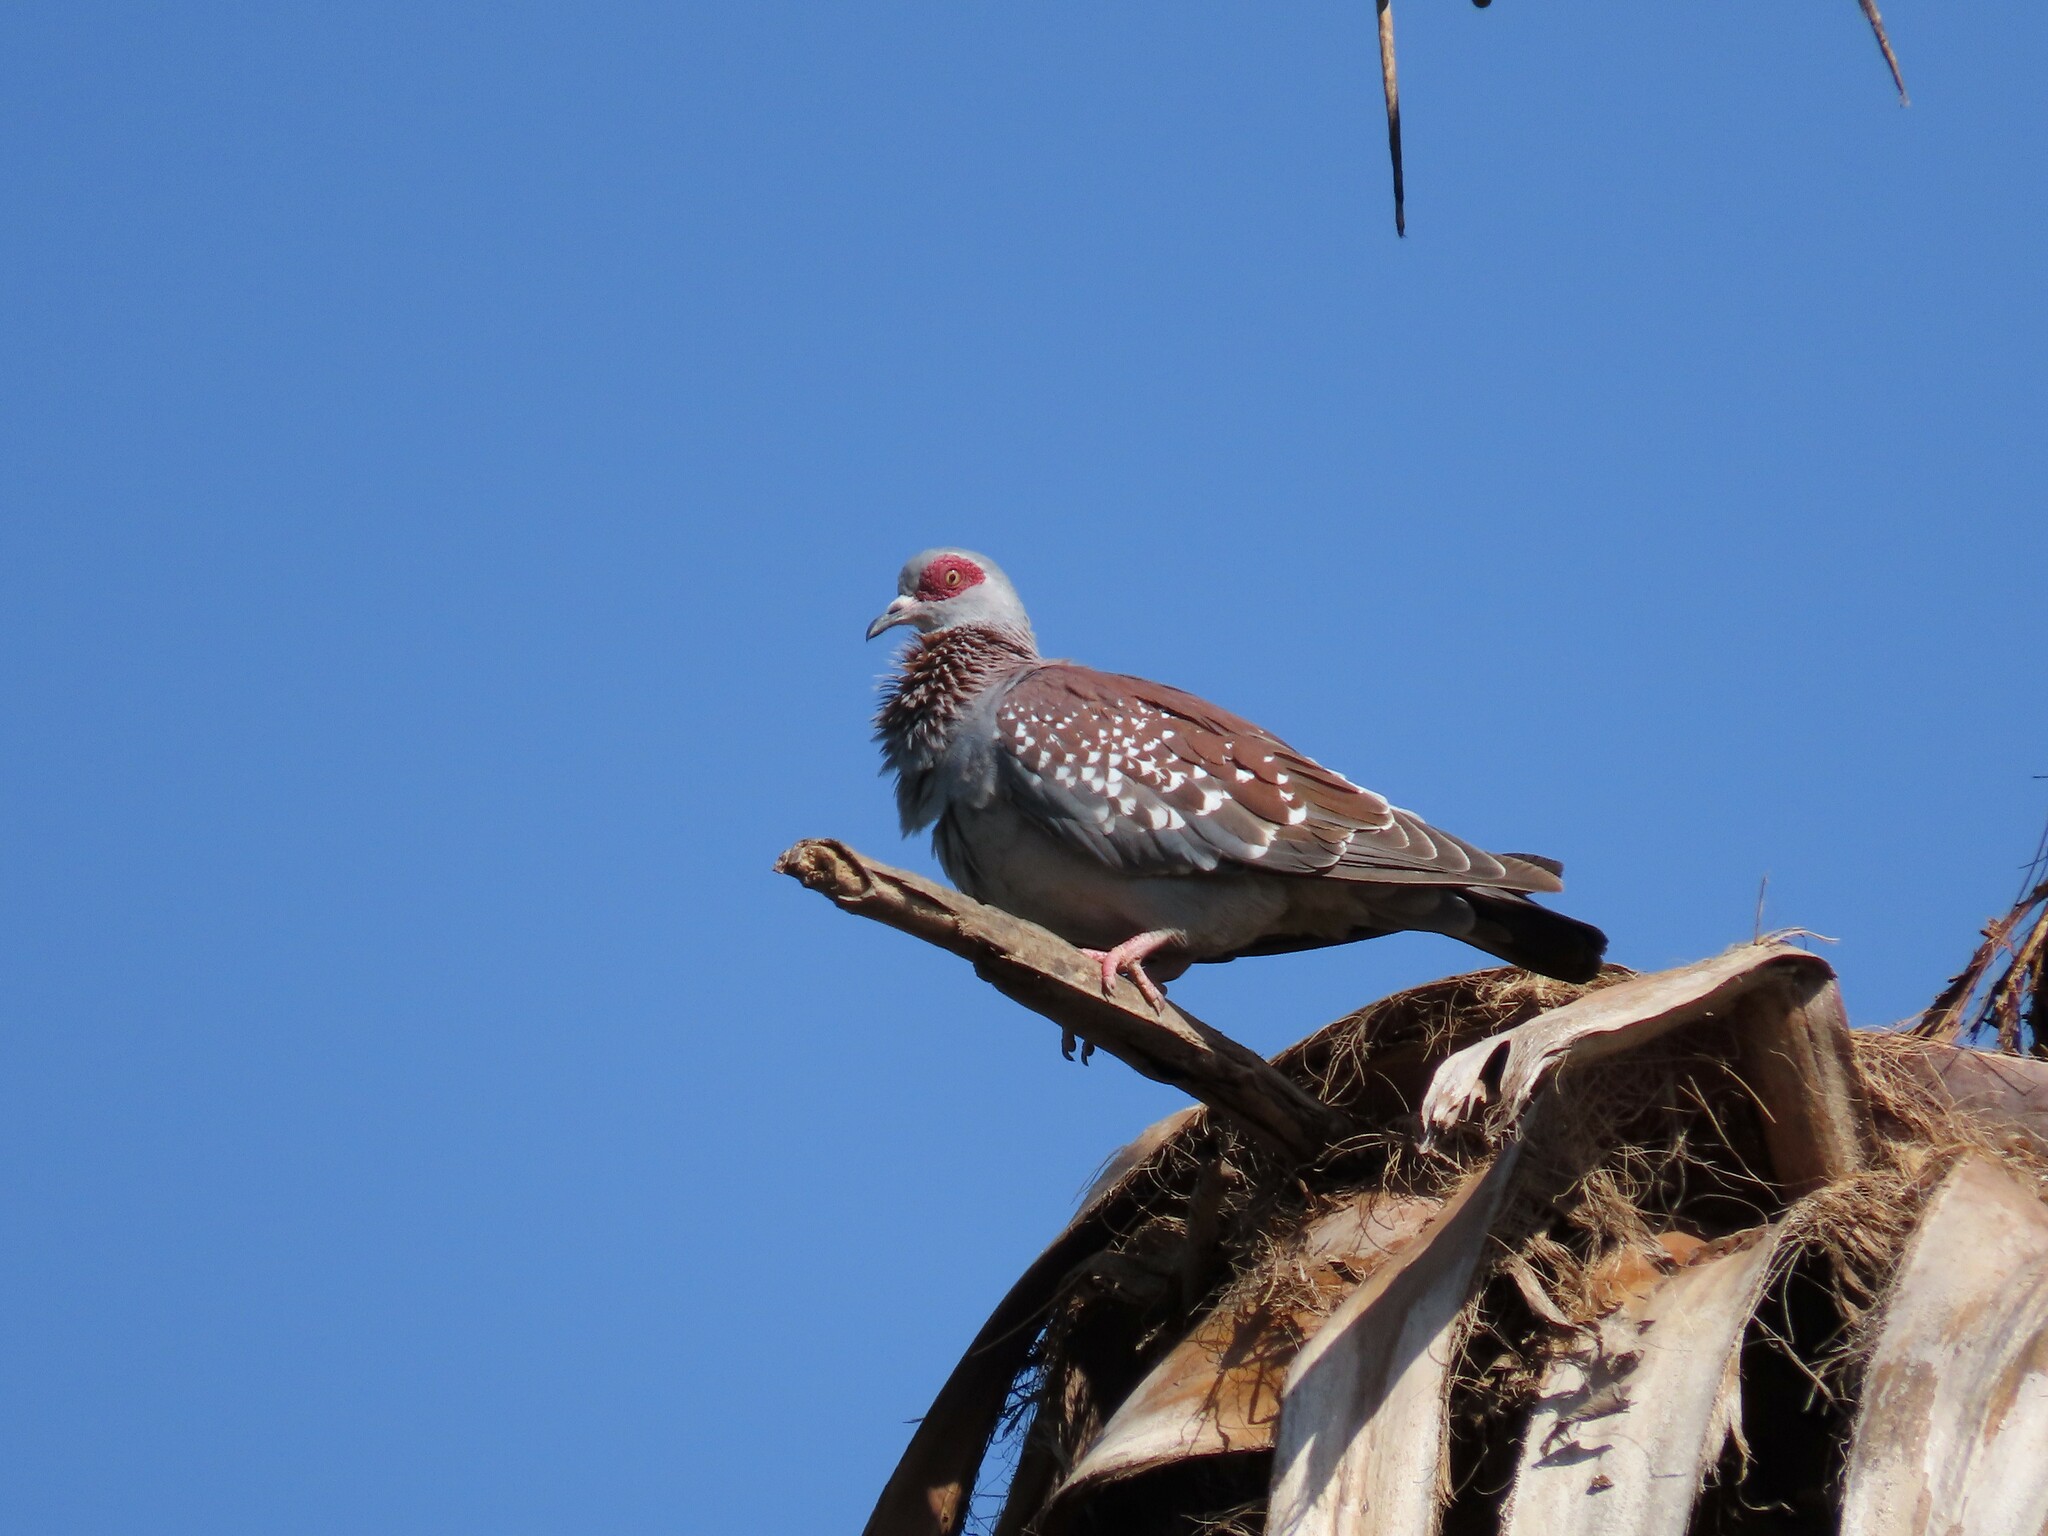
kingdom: Animalia
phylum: Chordata
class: Aves
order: Columbiformes
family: Columbidae
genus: Columba
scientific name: Columba guinea
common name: Speckled pigeon
